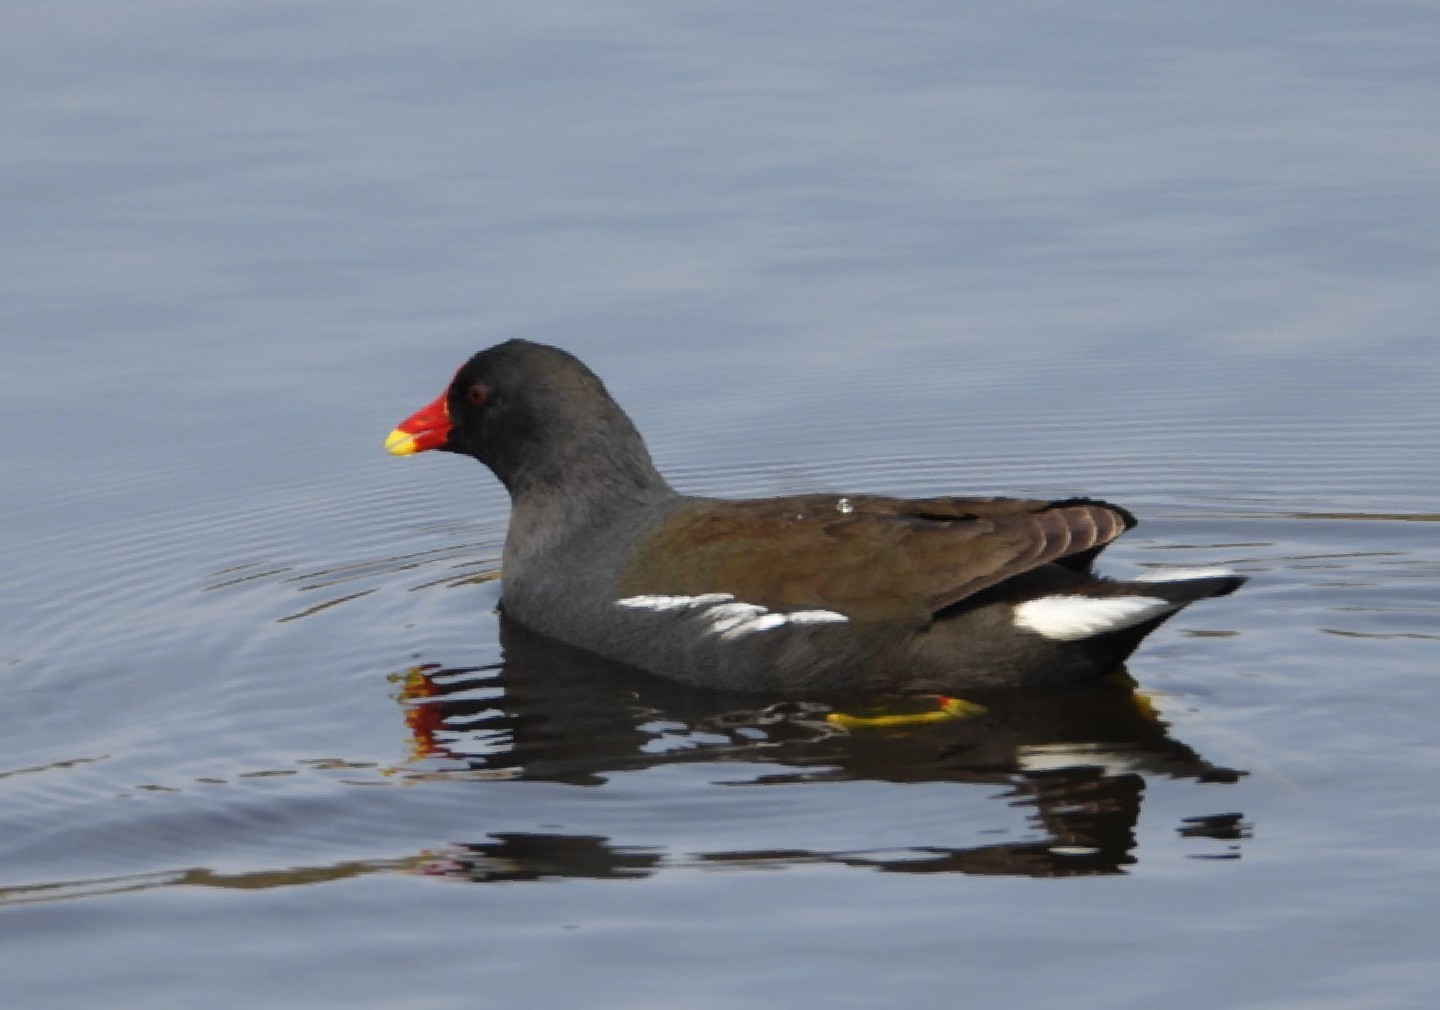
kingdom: Animalia
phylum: Chordata
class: Aves
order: Gruiformes
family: Rallidae
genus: Gallinula
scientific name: Gallinula chloropus
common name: Common moorhen
